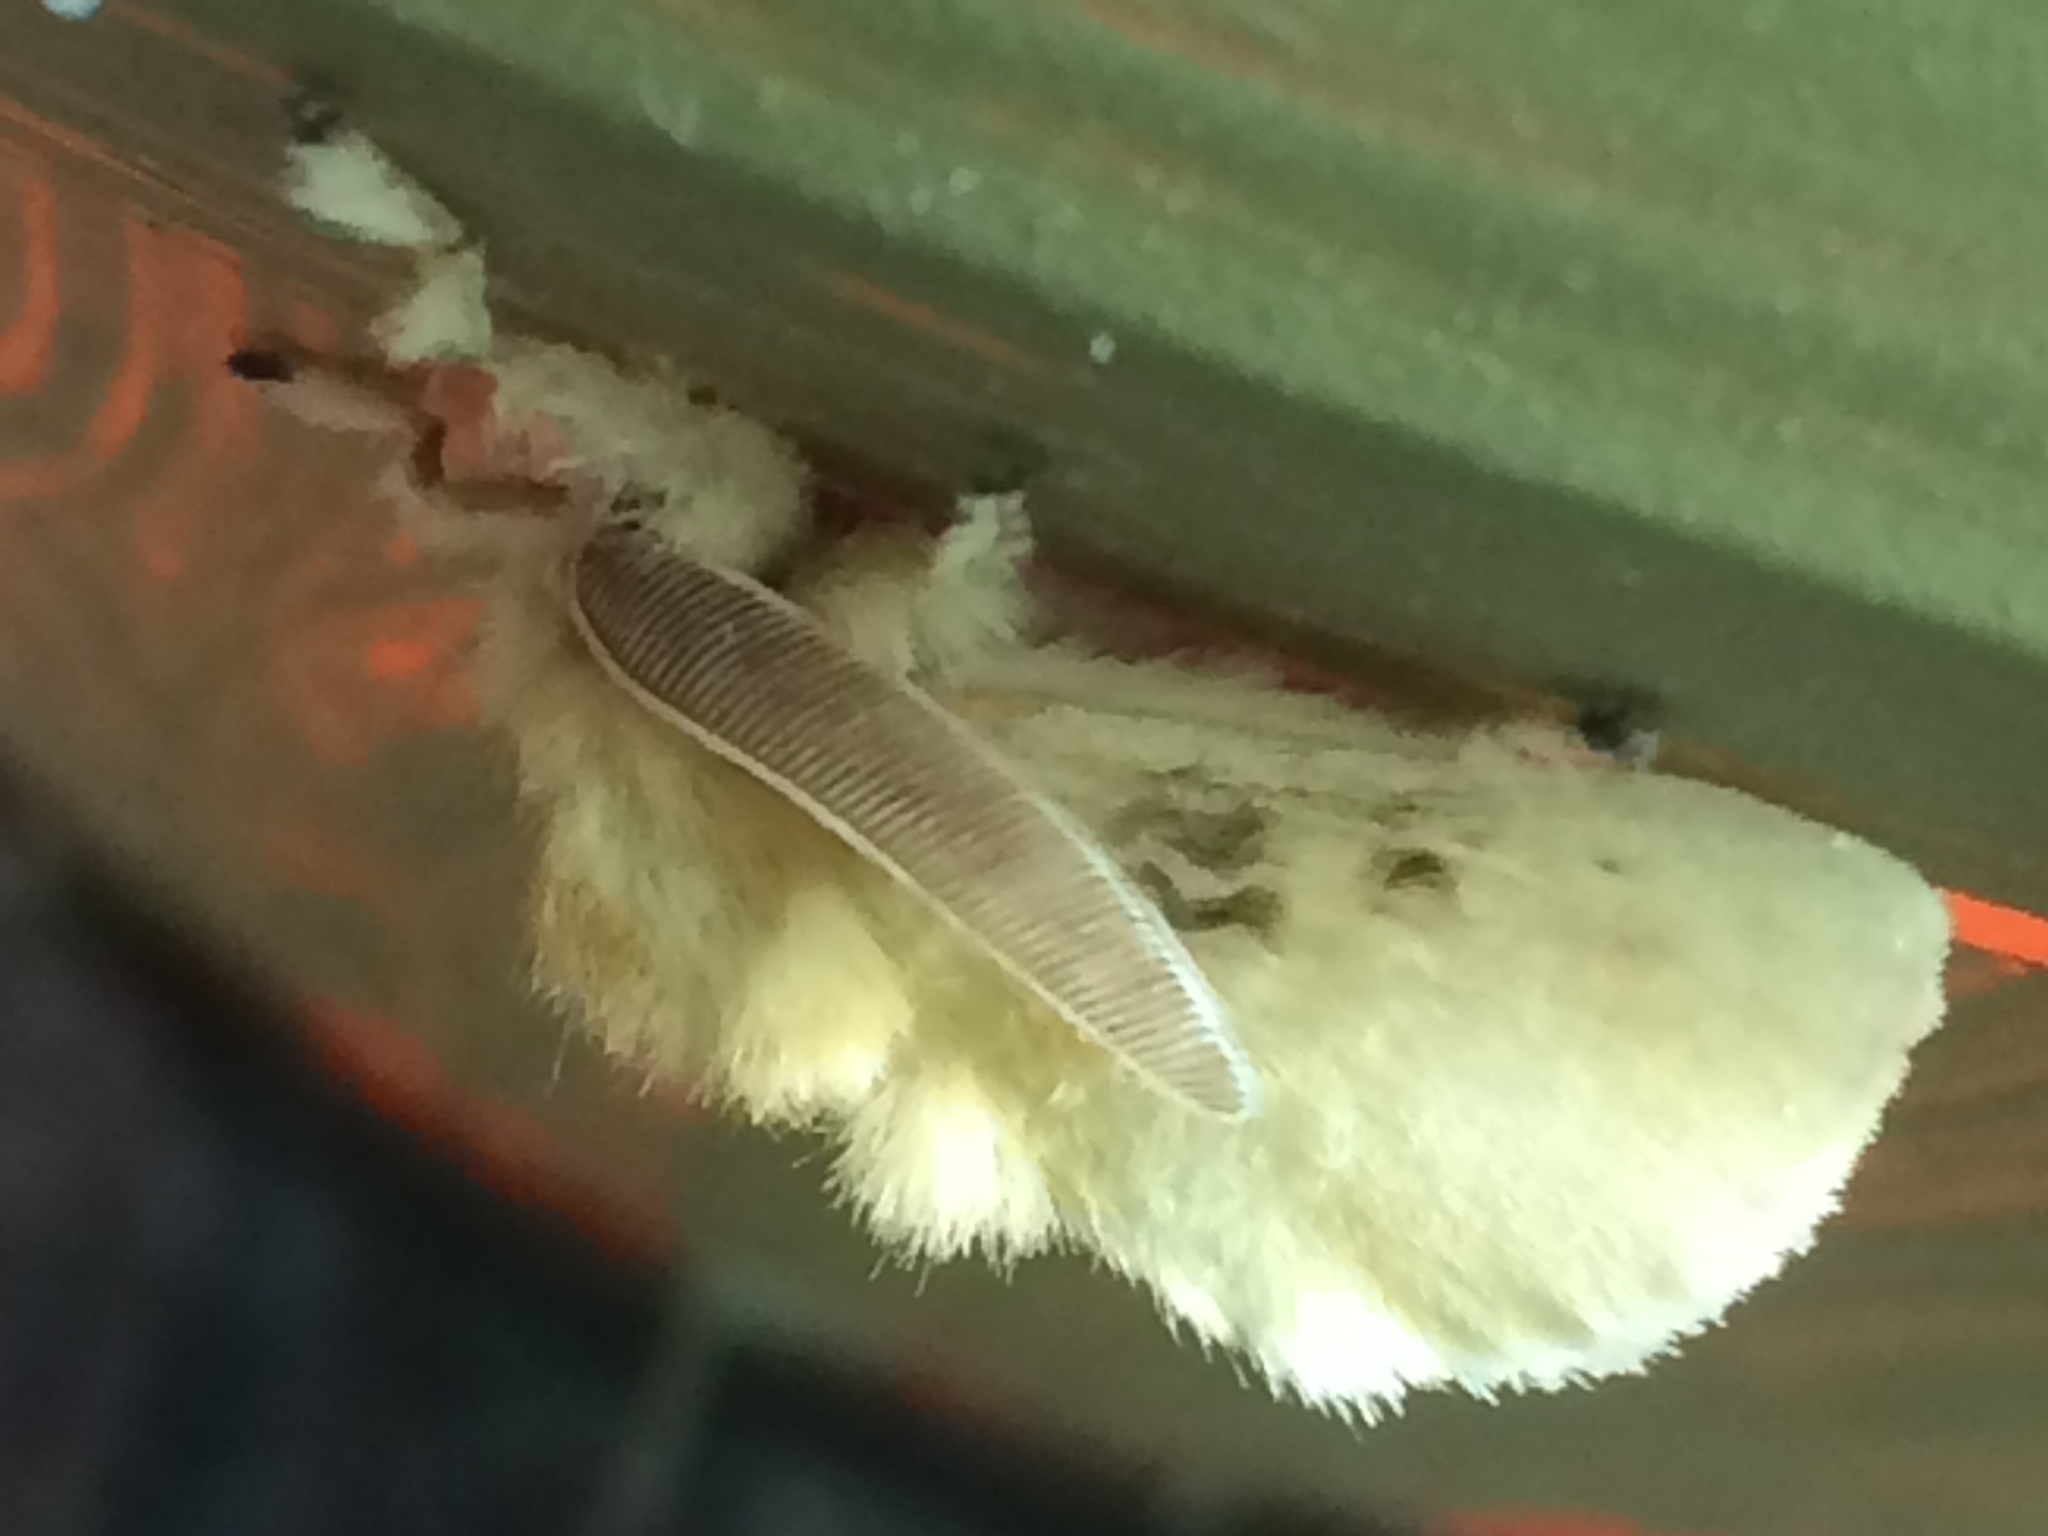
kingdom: Animalia
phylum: Arthropoda
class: Insecta
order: Lepidoptera
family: Megalopygidae
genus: Megalopyge
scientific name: Megalopyge crispata
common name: Black-waved flannel moth
